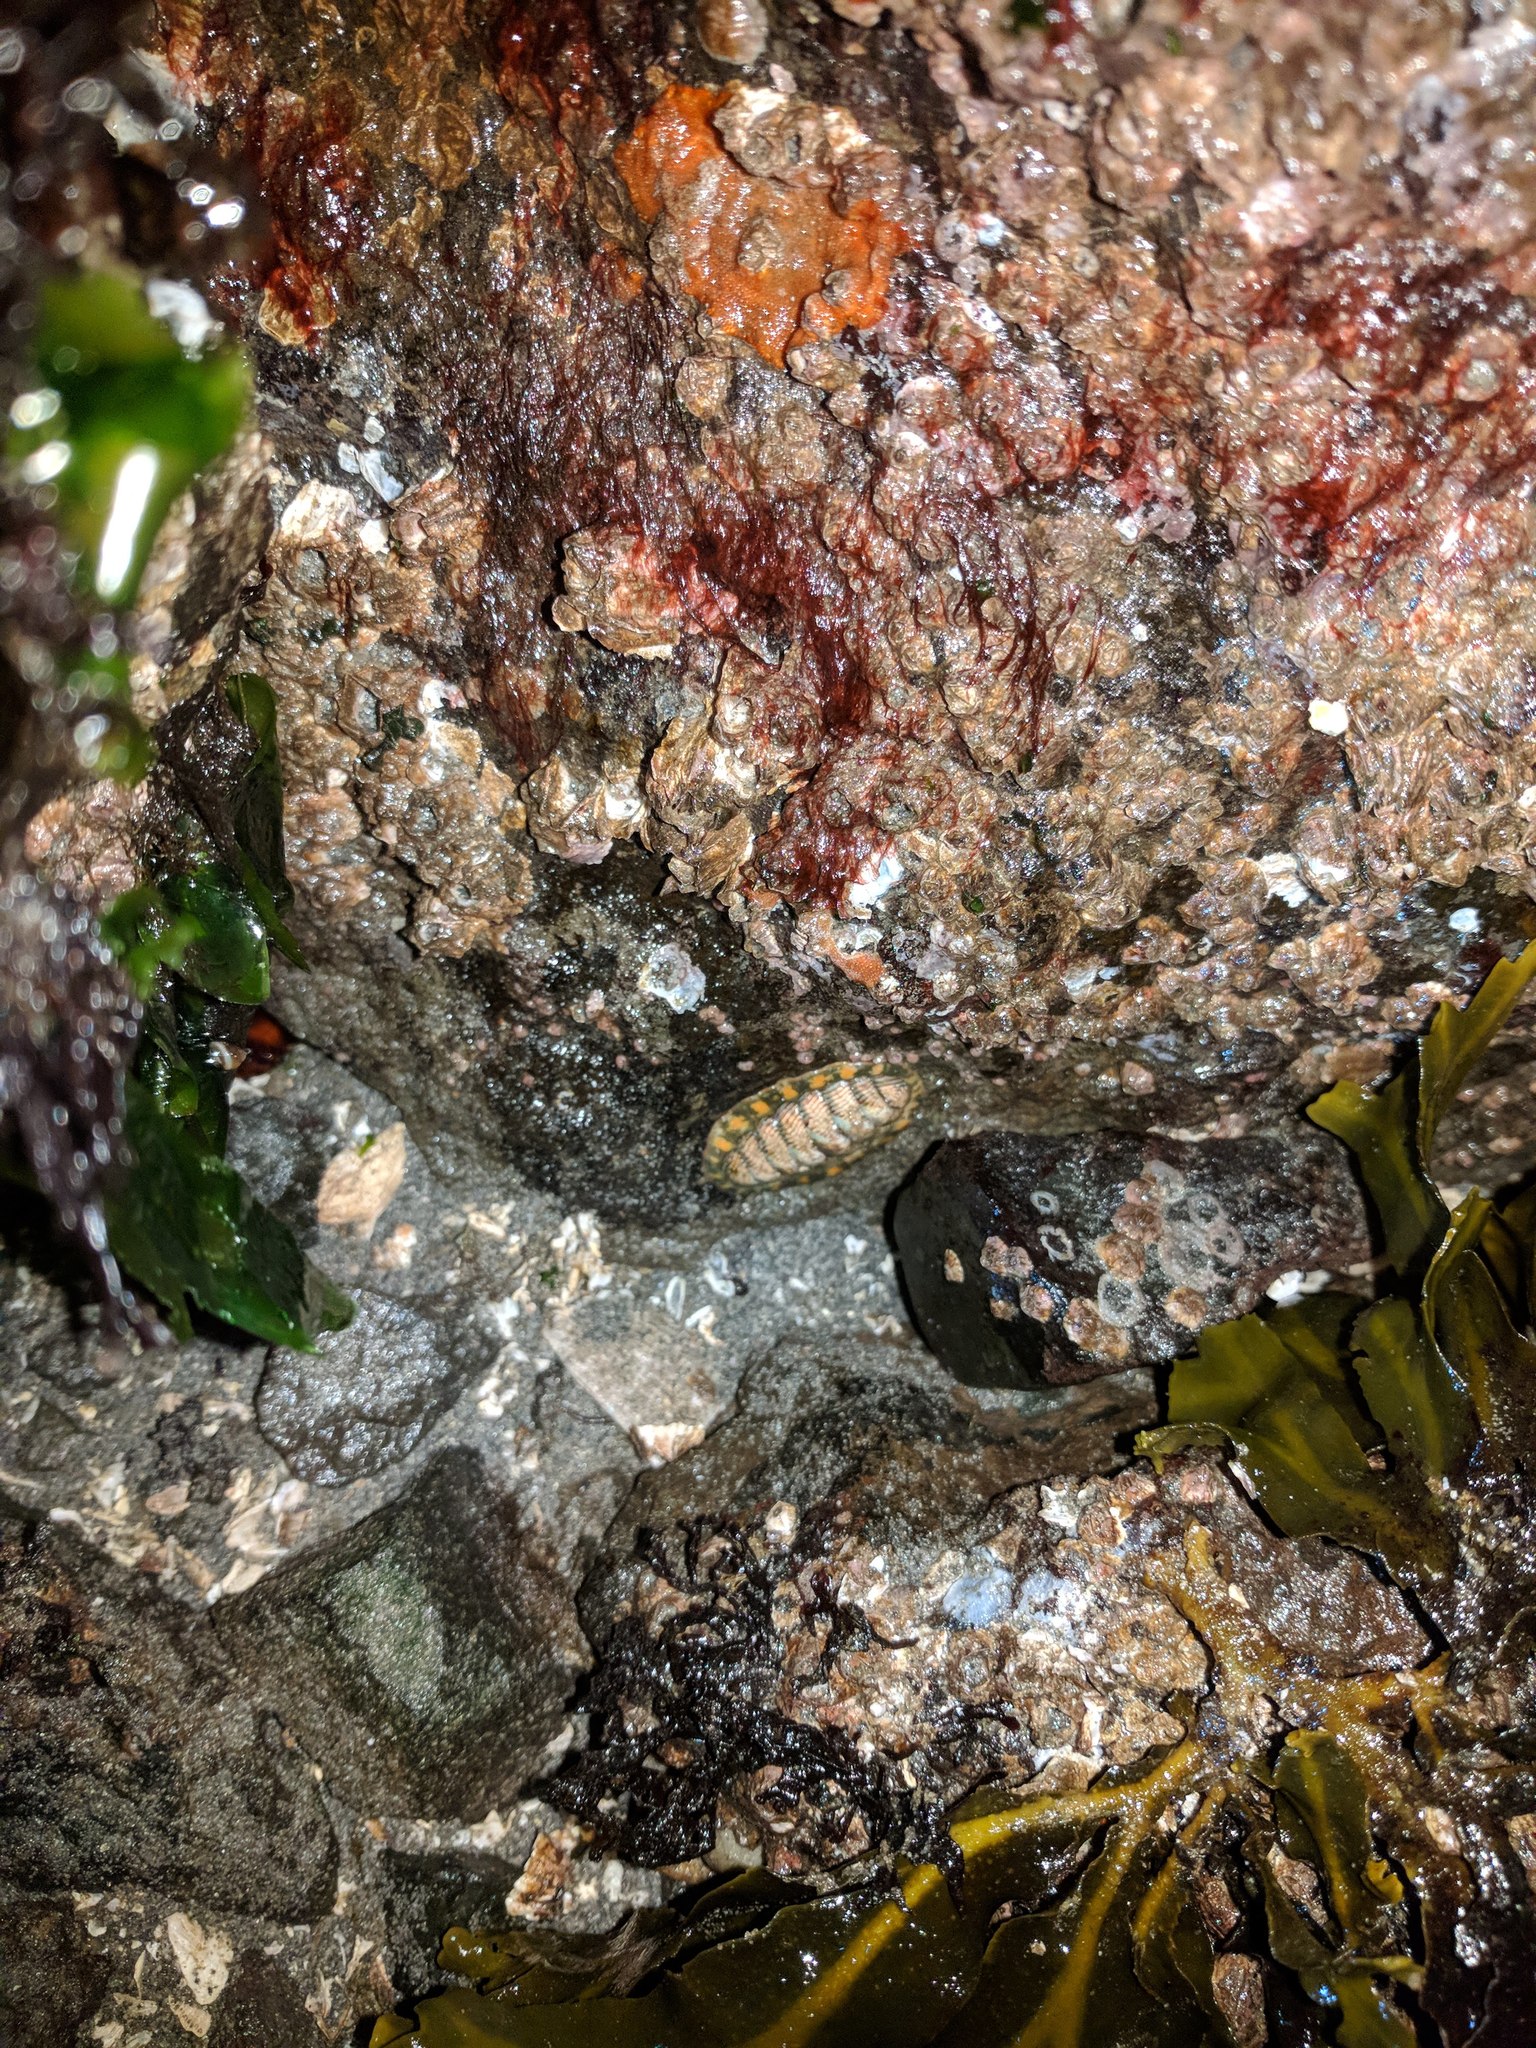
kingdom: Animalia
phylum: Mollusca
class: Polyplacophora
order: Chitonida
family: Tonicellidae
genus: Tonicella
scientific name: Tonicella lineata
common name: Lined chiton
